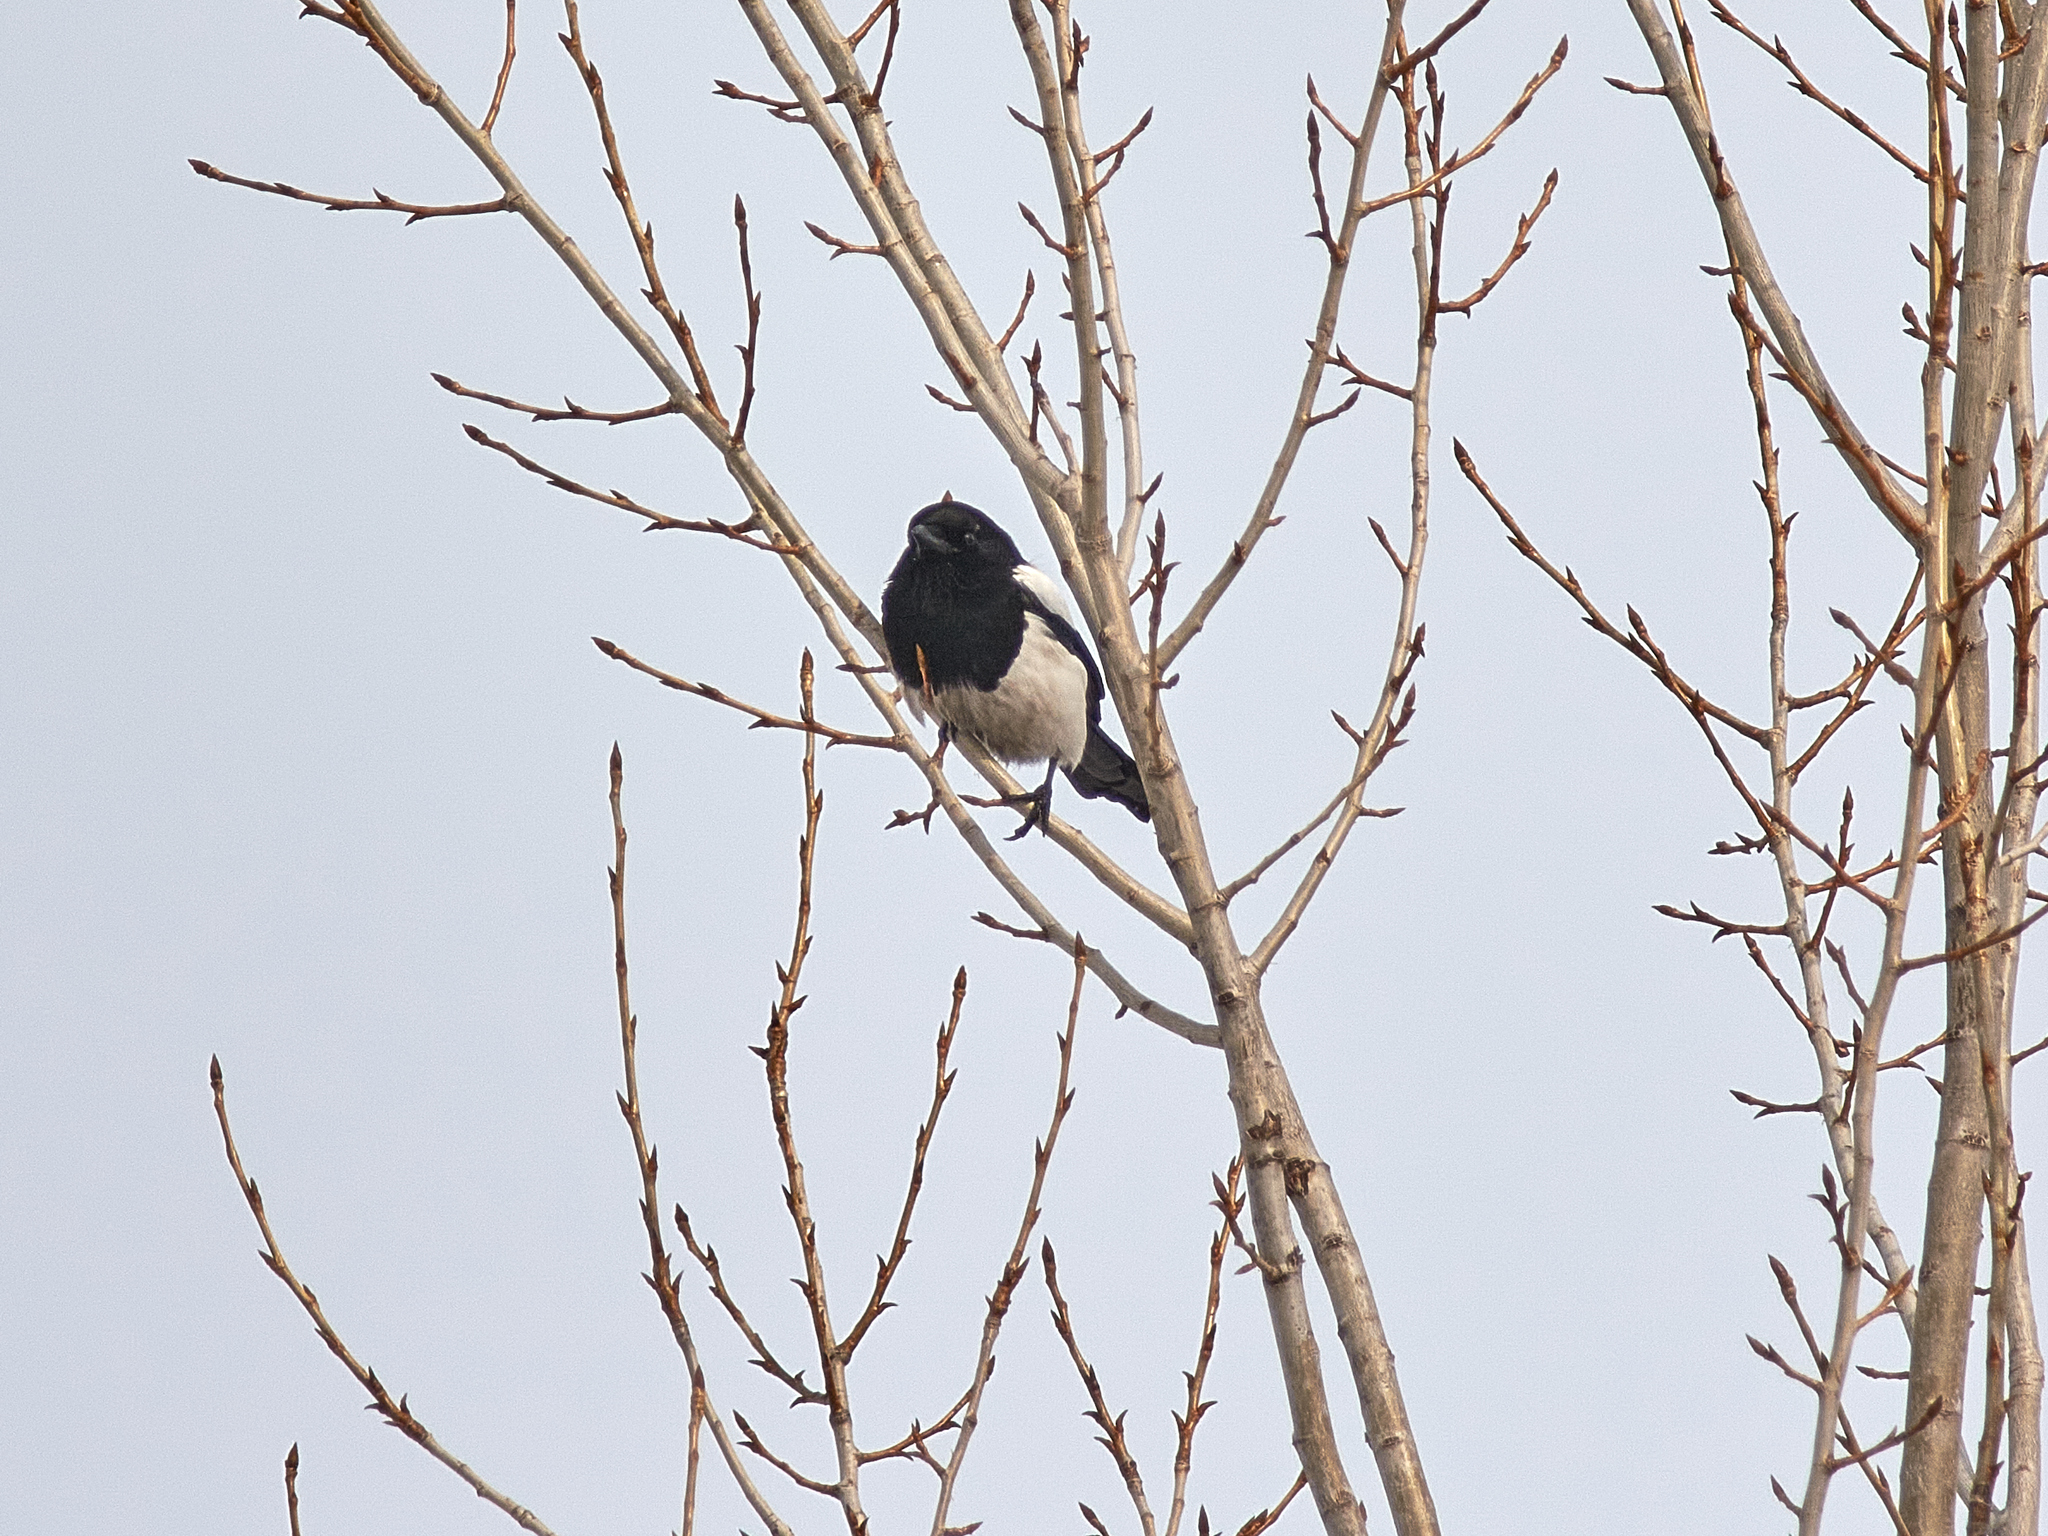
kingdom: Animalia
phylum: Chordata
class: Aves
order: Passeriformes
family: Corvidae
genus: Pica
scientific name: Pica pica
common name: Eurasian magpie
